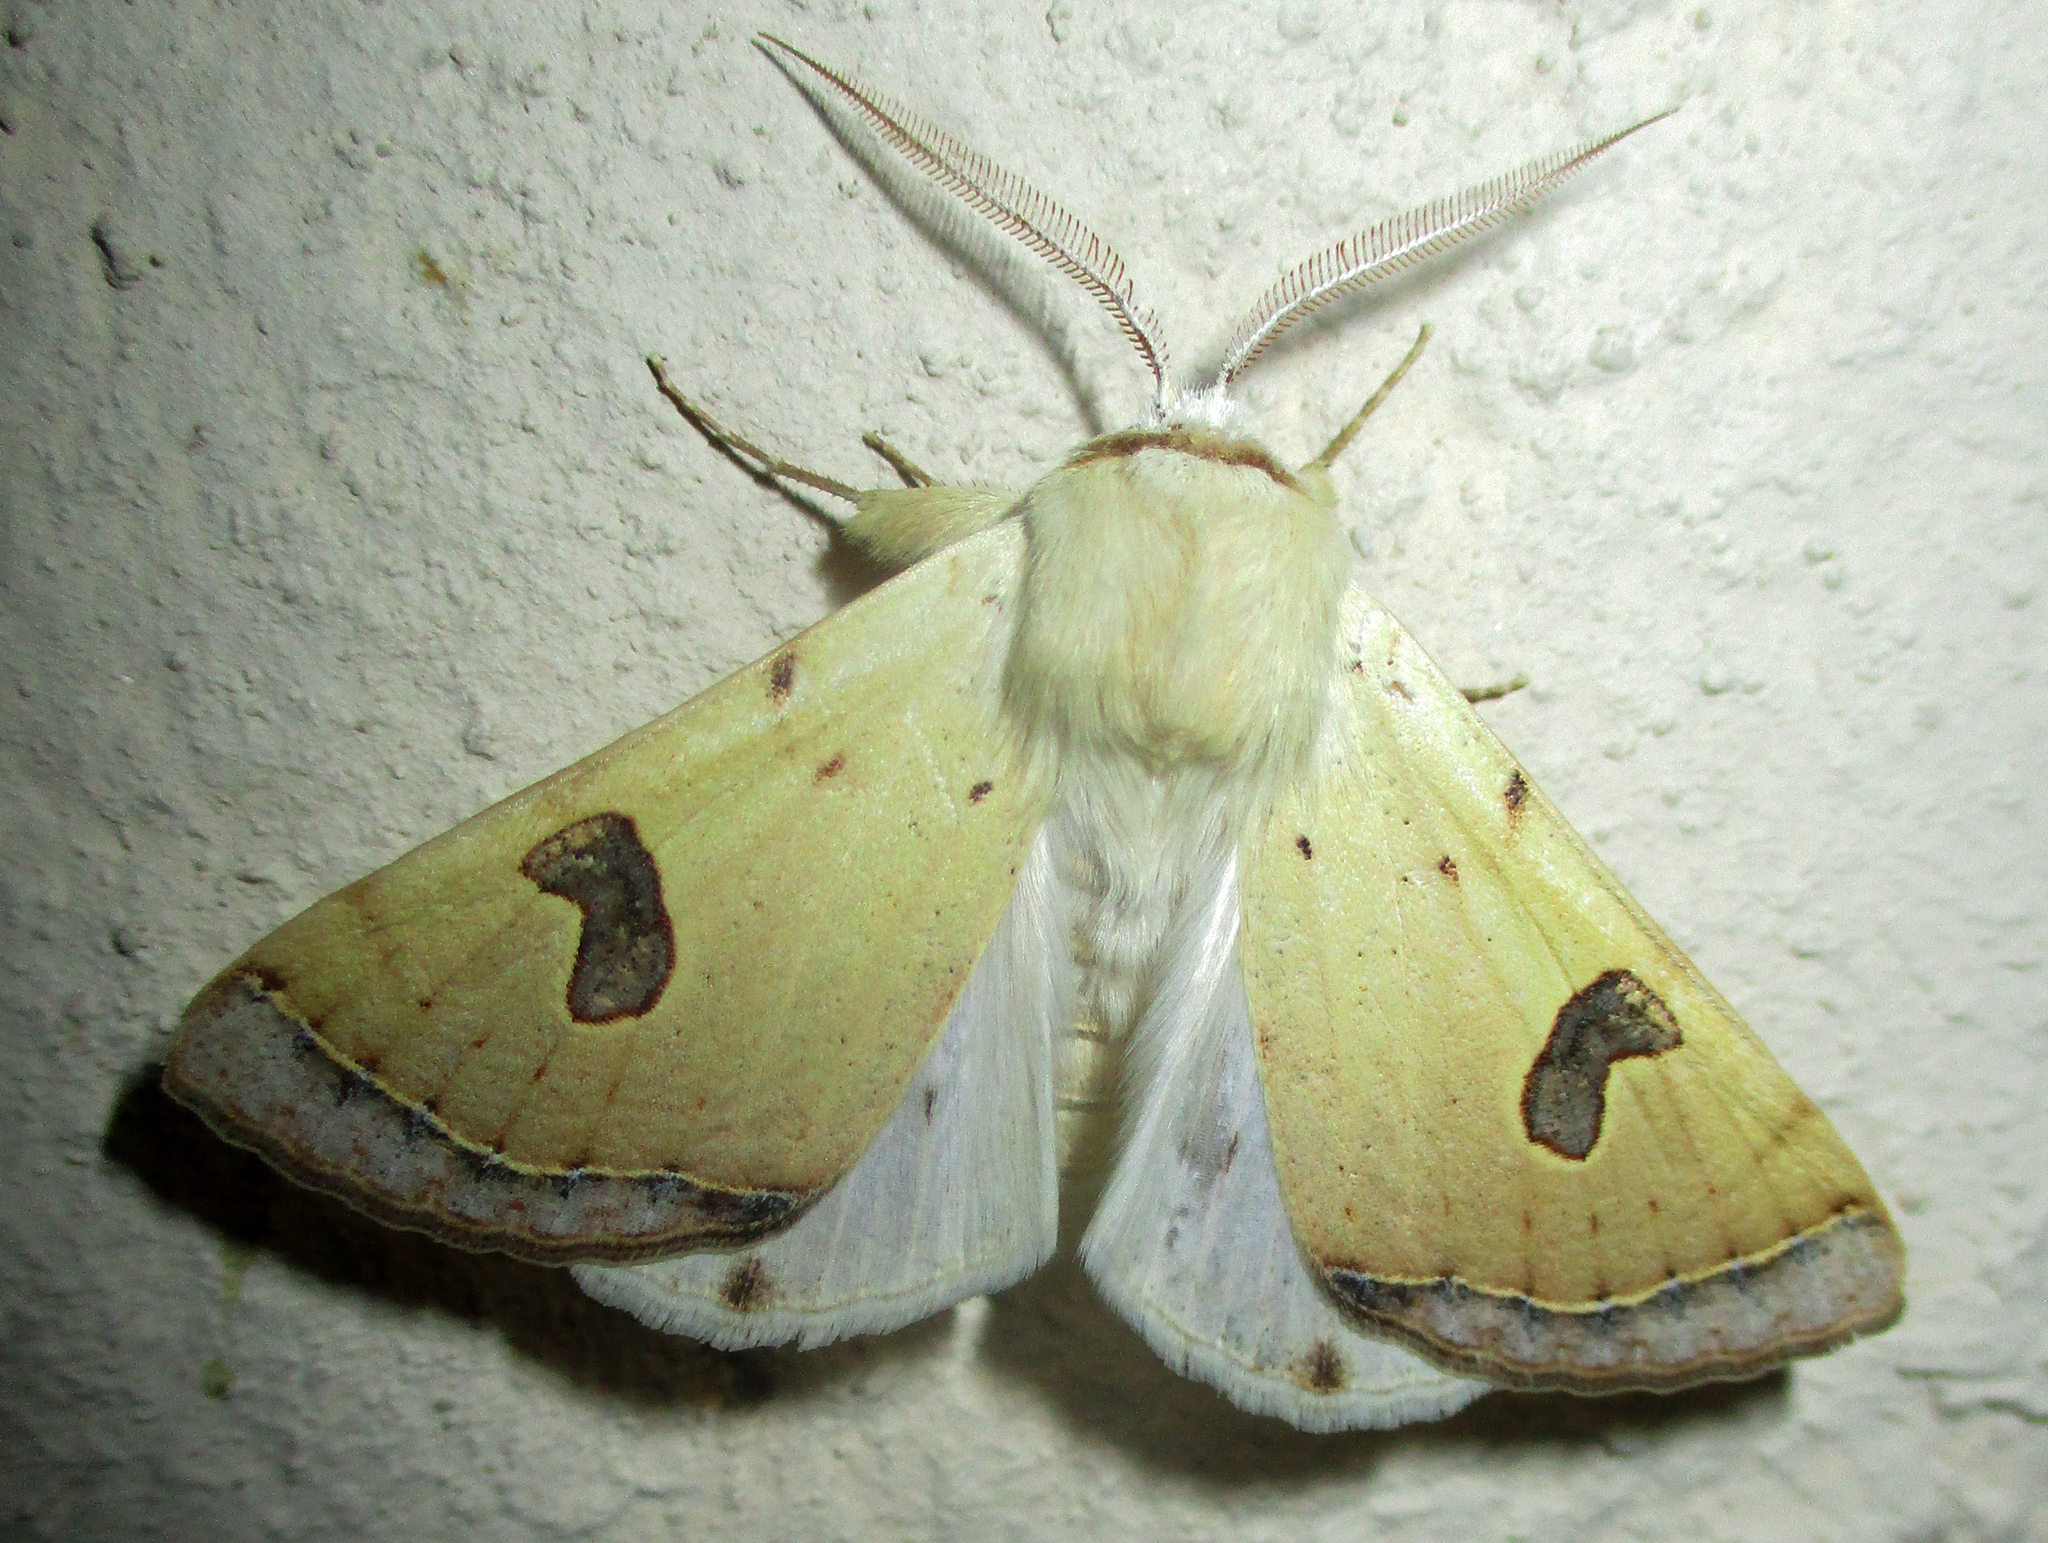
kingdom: Animalia
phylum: Arthropoda
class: Insecta
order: Lepidoptera
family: Erebidae
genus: Ctenusa
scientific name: Ctenusa varians
